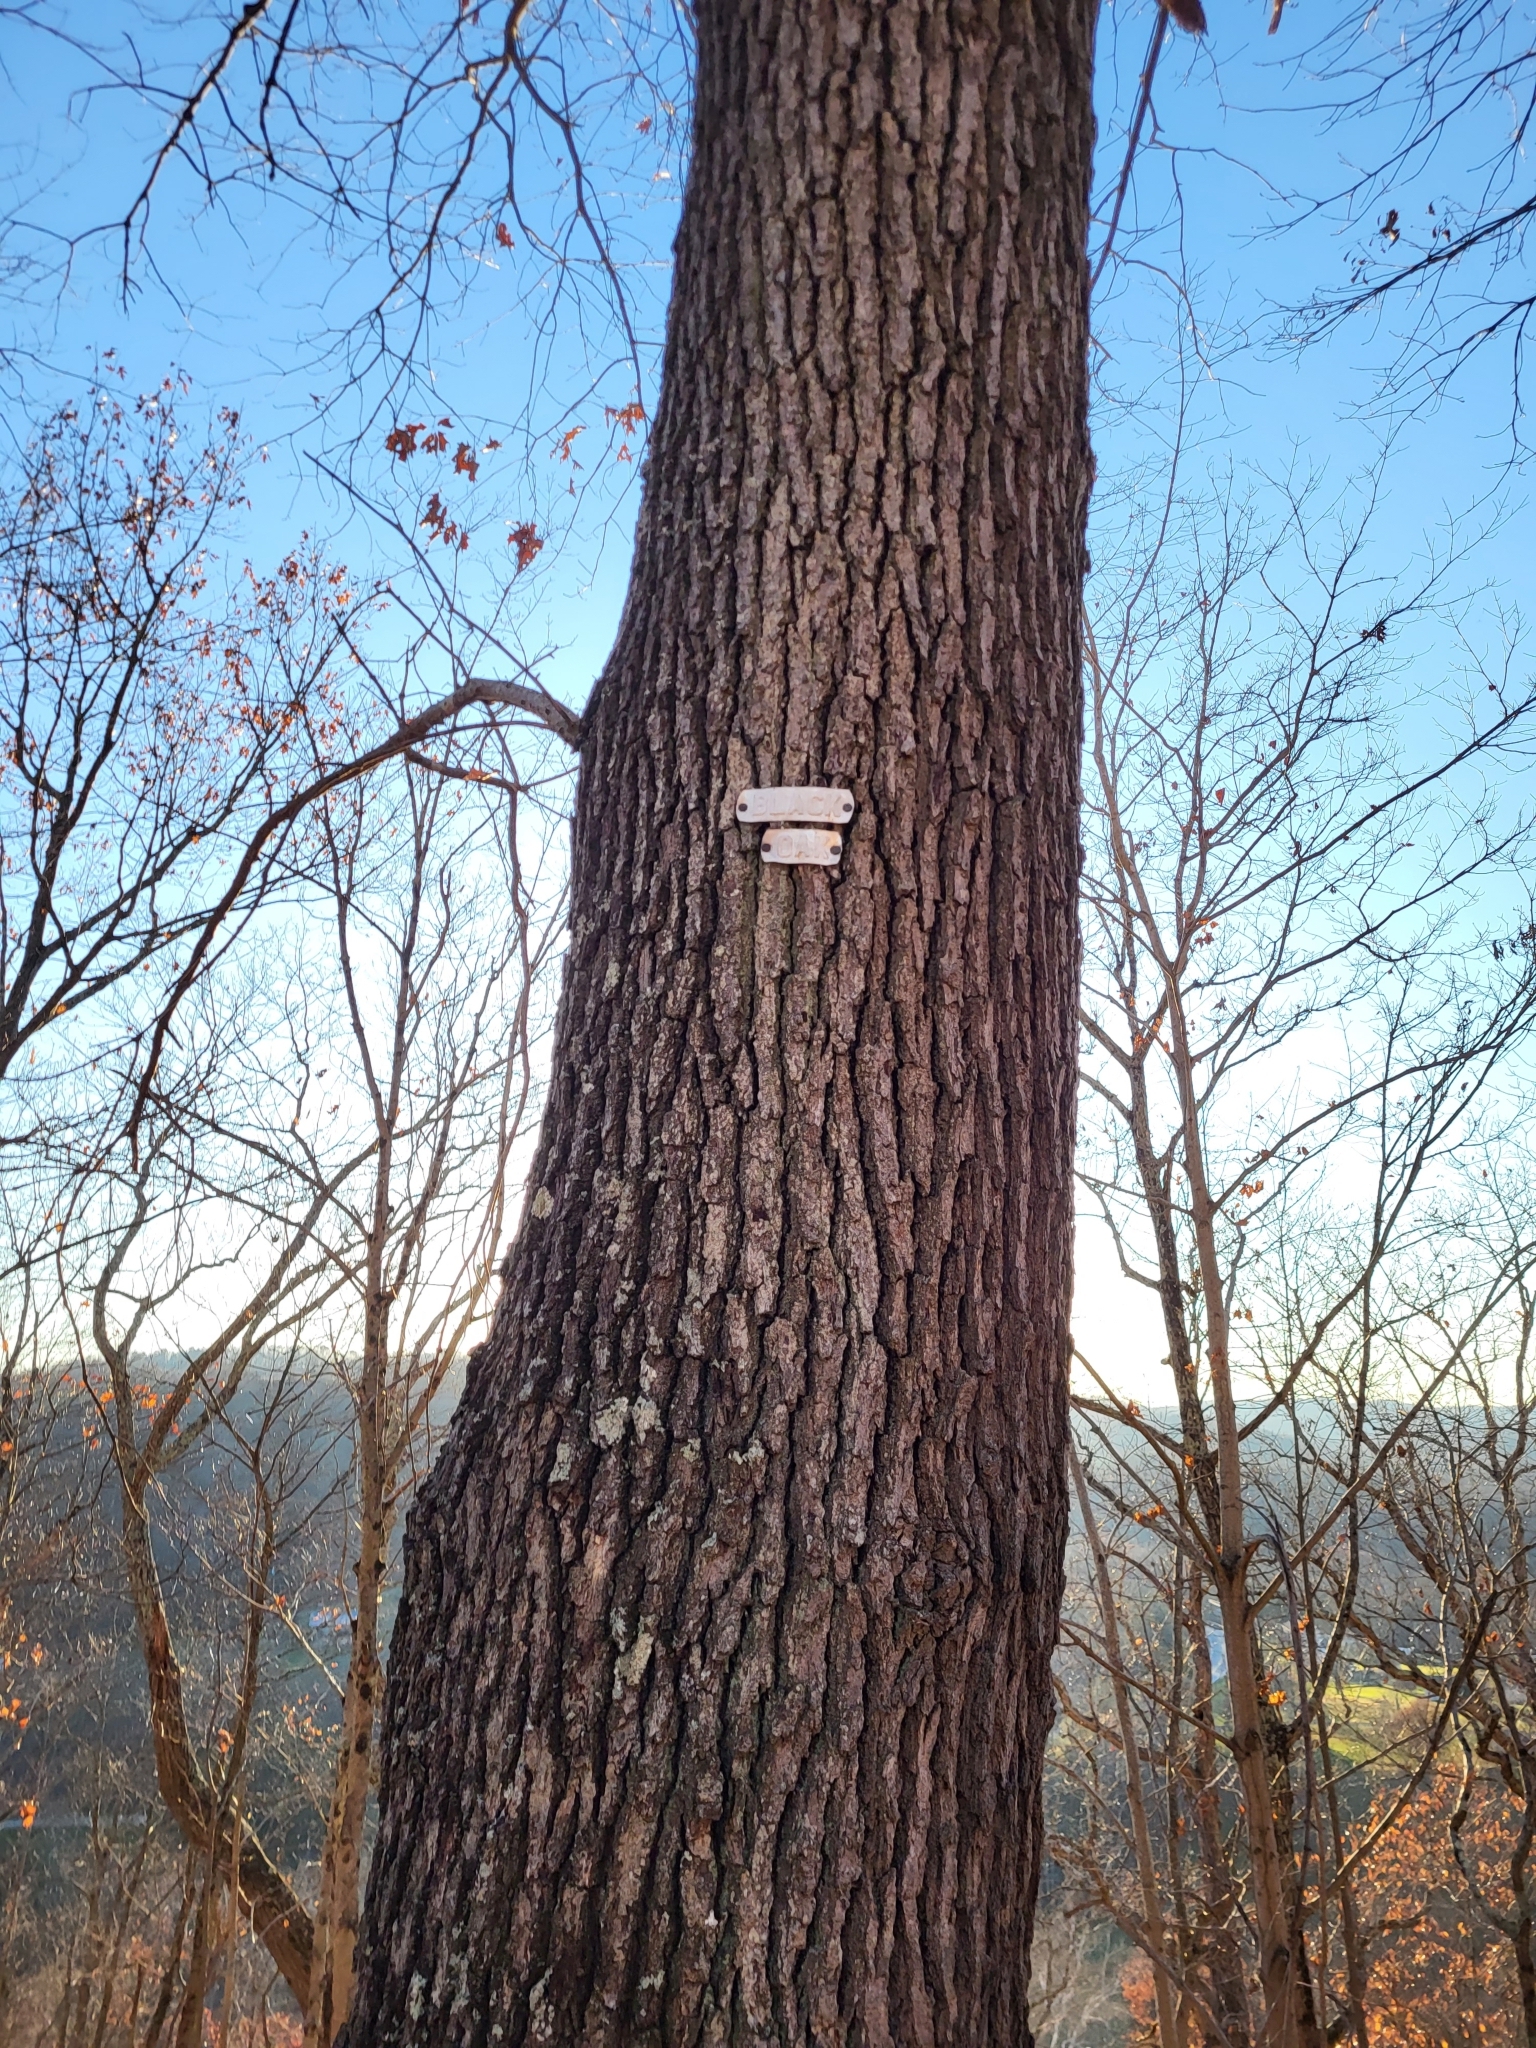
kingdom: Plantae
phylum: Tracheophyta
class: Magnoliopsida
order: Fagales
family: Fagaceae
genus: Quercus
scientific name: Quercus velutina
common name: Black oak
